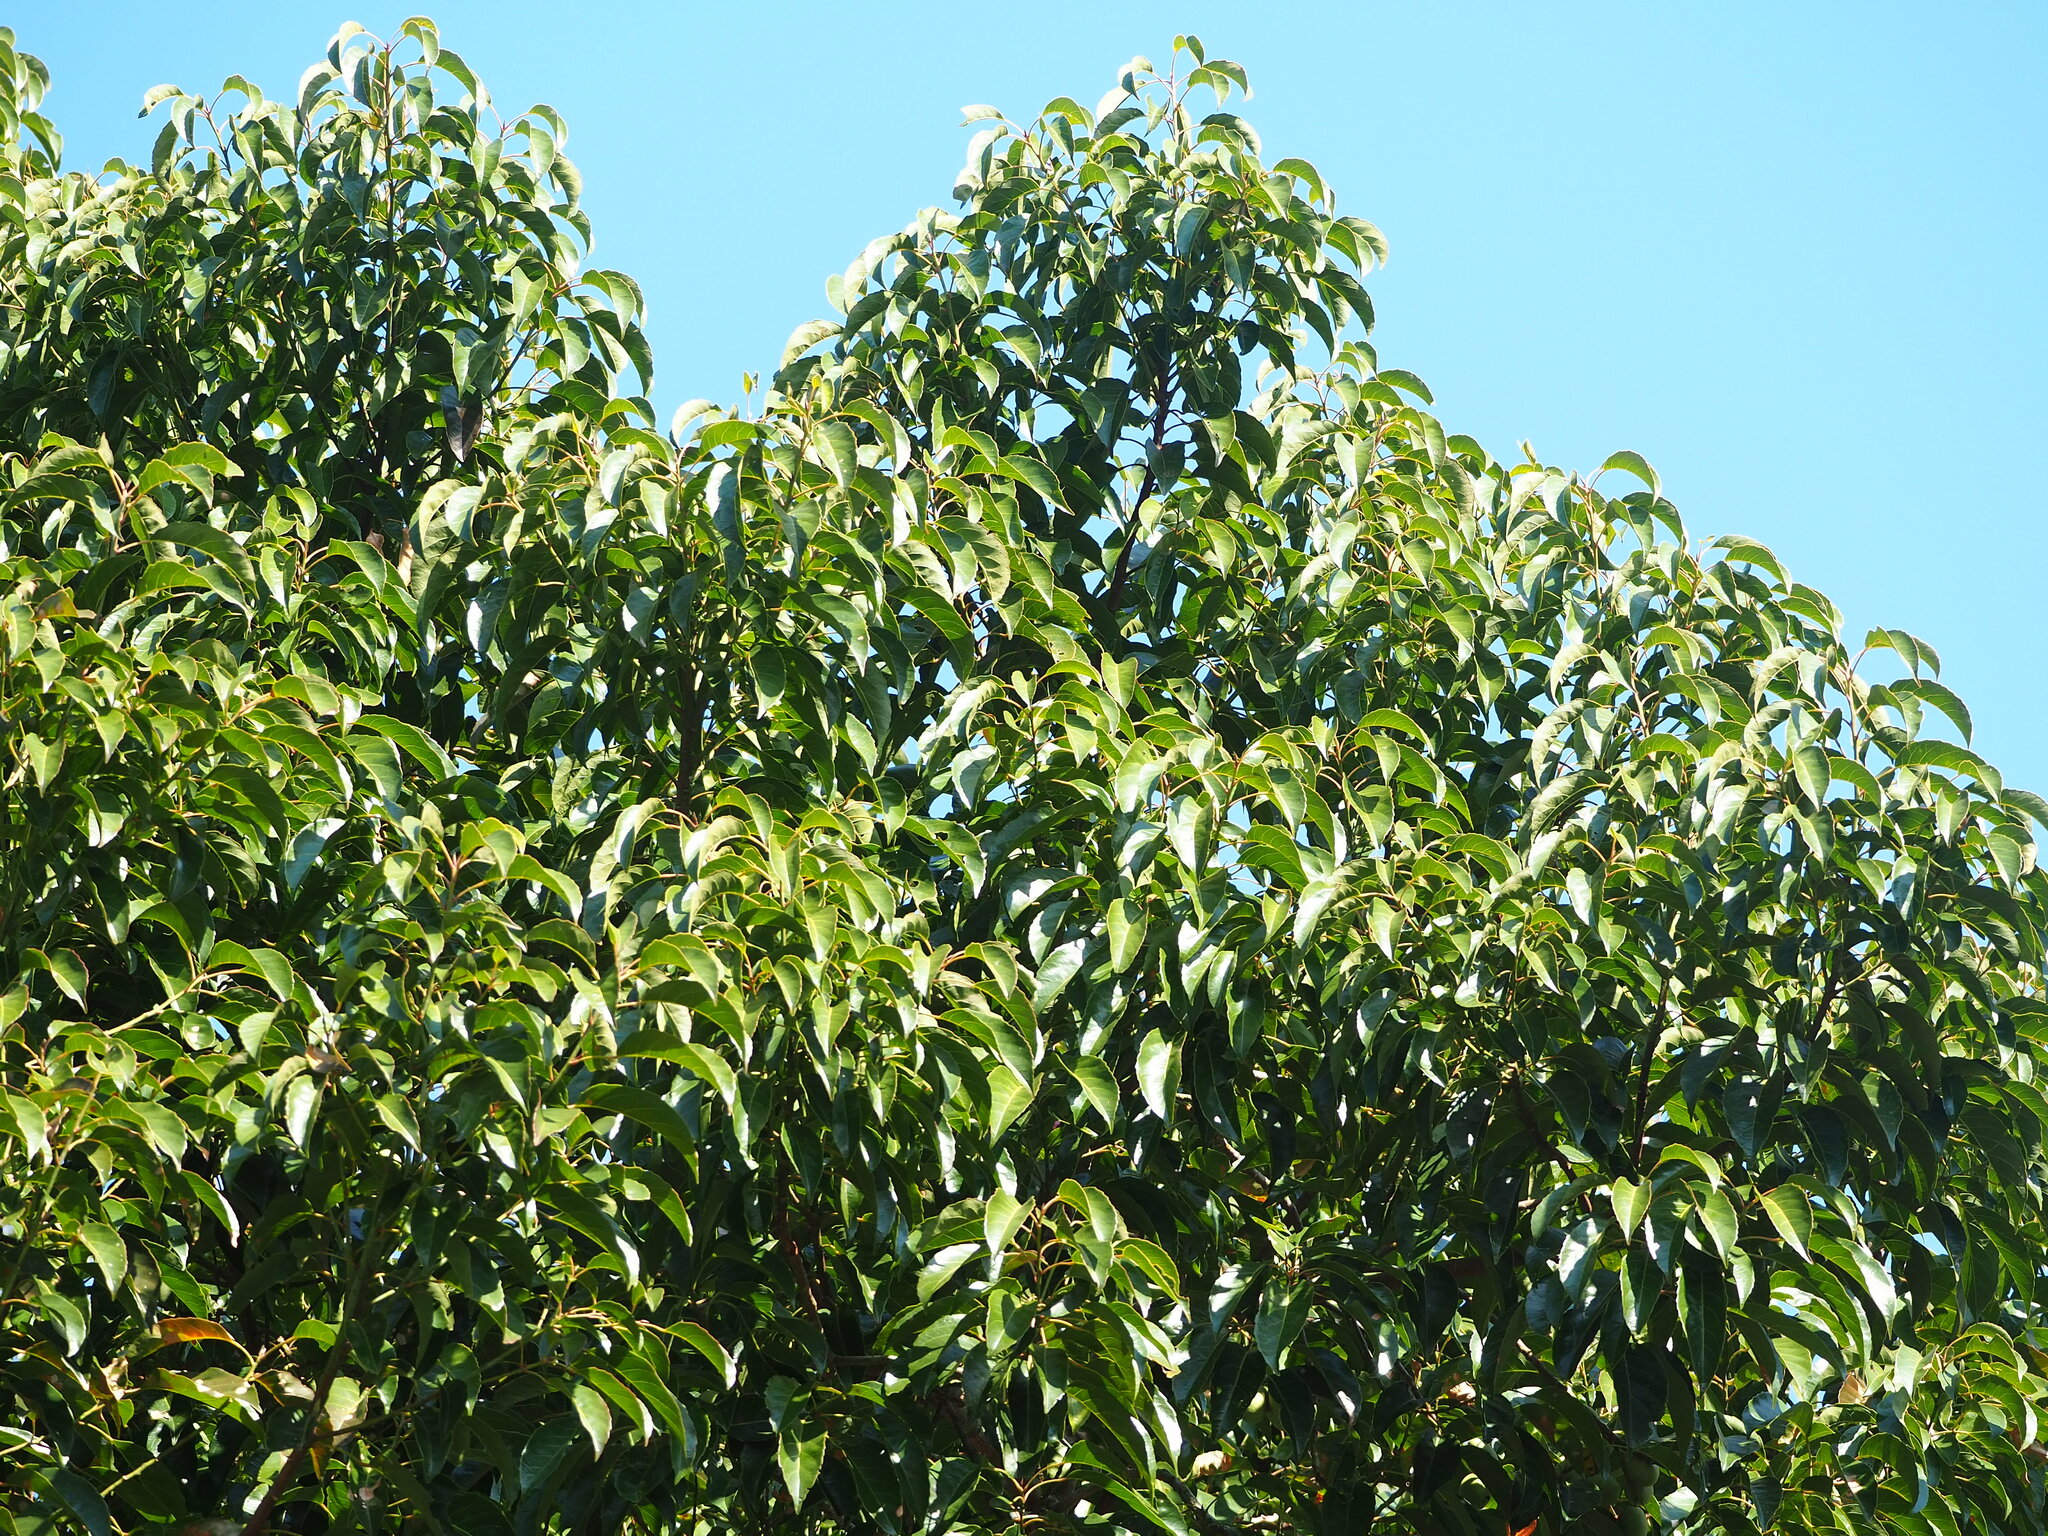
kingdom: Plantae
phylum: Tracheophyta
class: Magnoliopsida
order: Oxalidales
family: Elaeocarpaceae
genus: Elaeocarpus
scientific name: Elaeocarpus serratus
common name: Ceylon-olive
